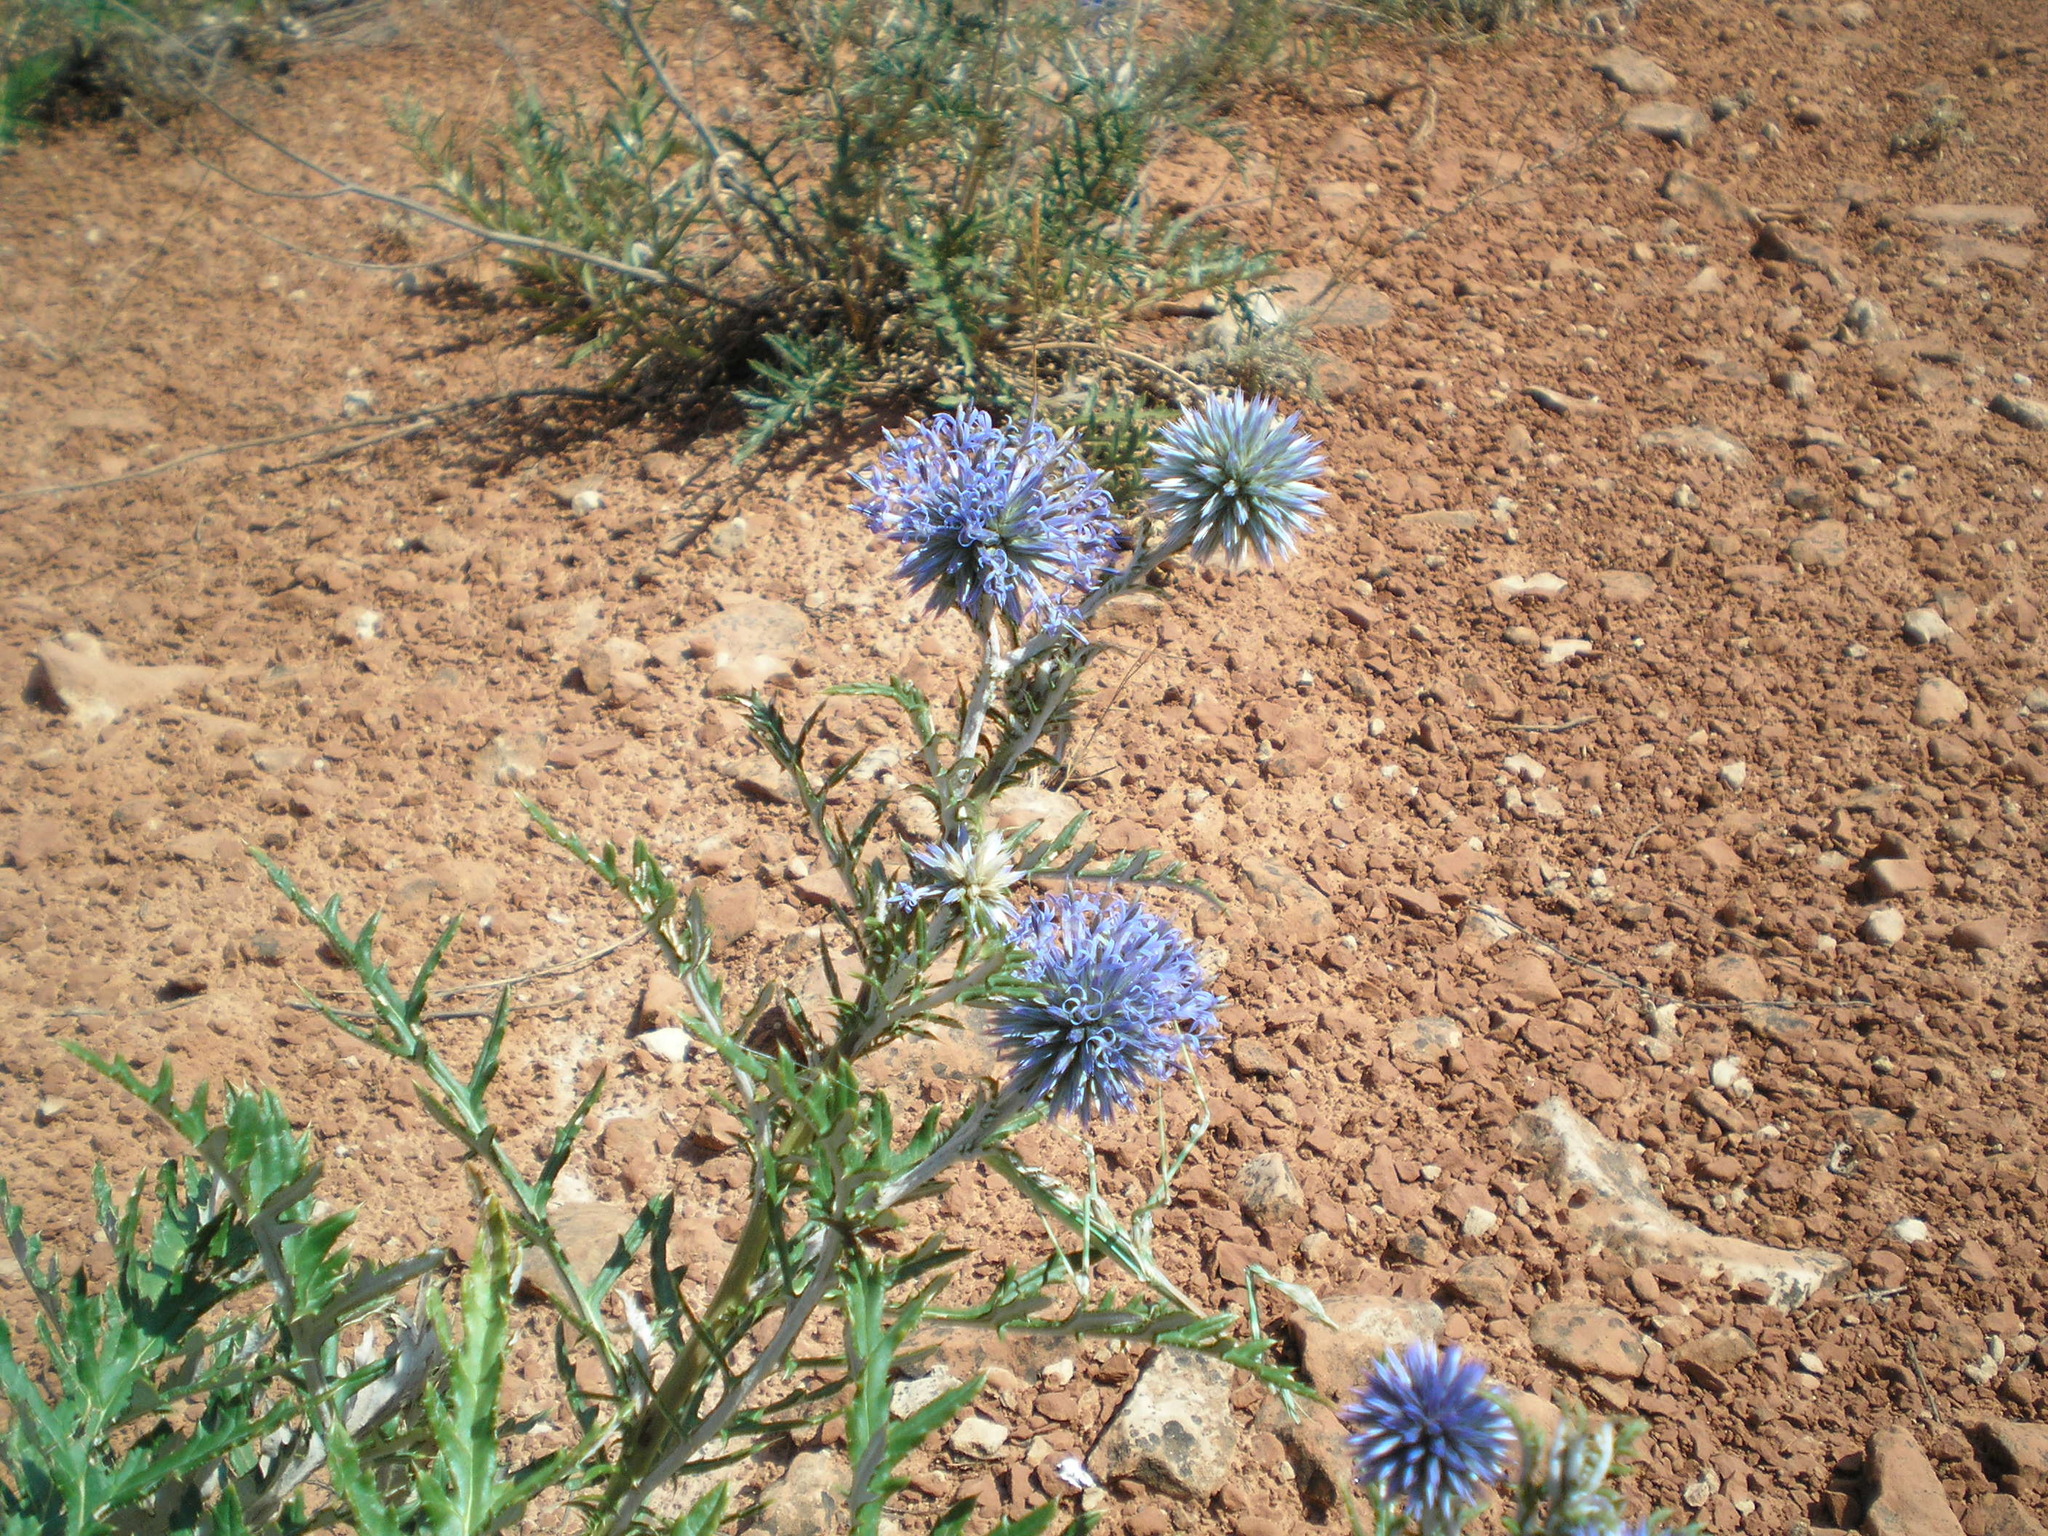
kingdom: Plantae
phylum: Tracheophyta
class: Magnoliopsida
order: Asterales
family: Asteraceae
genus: Echinops
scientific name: Echinops ritro
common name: Globe thistle
